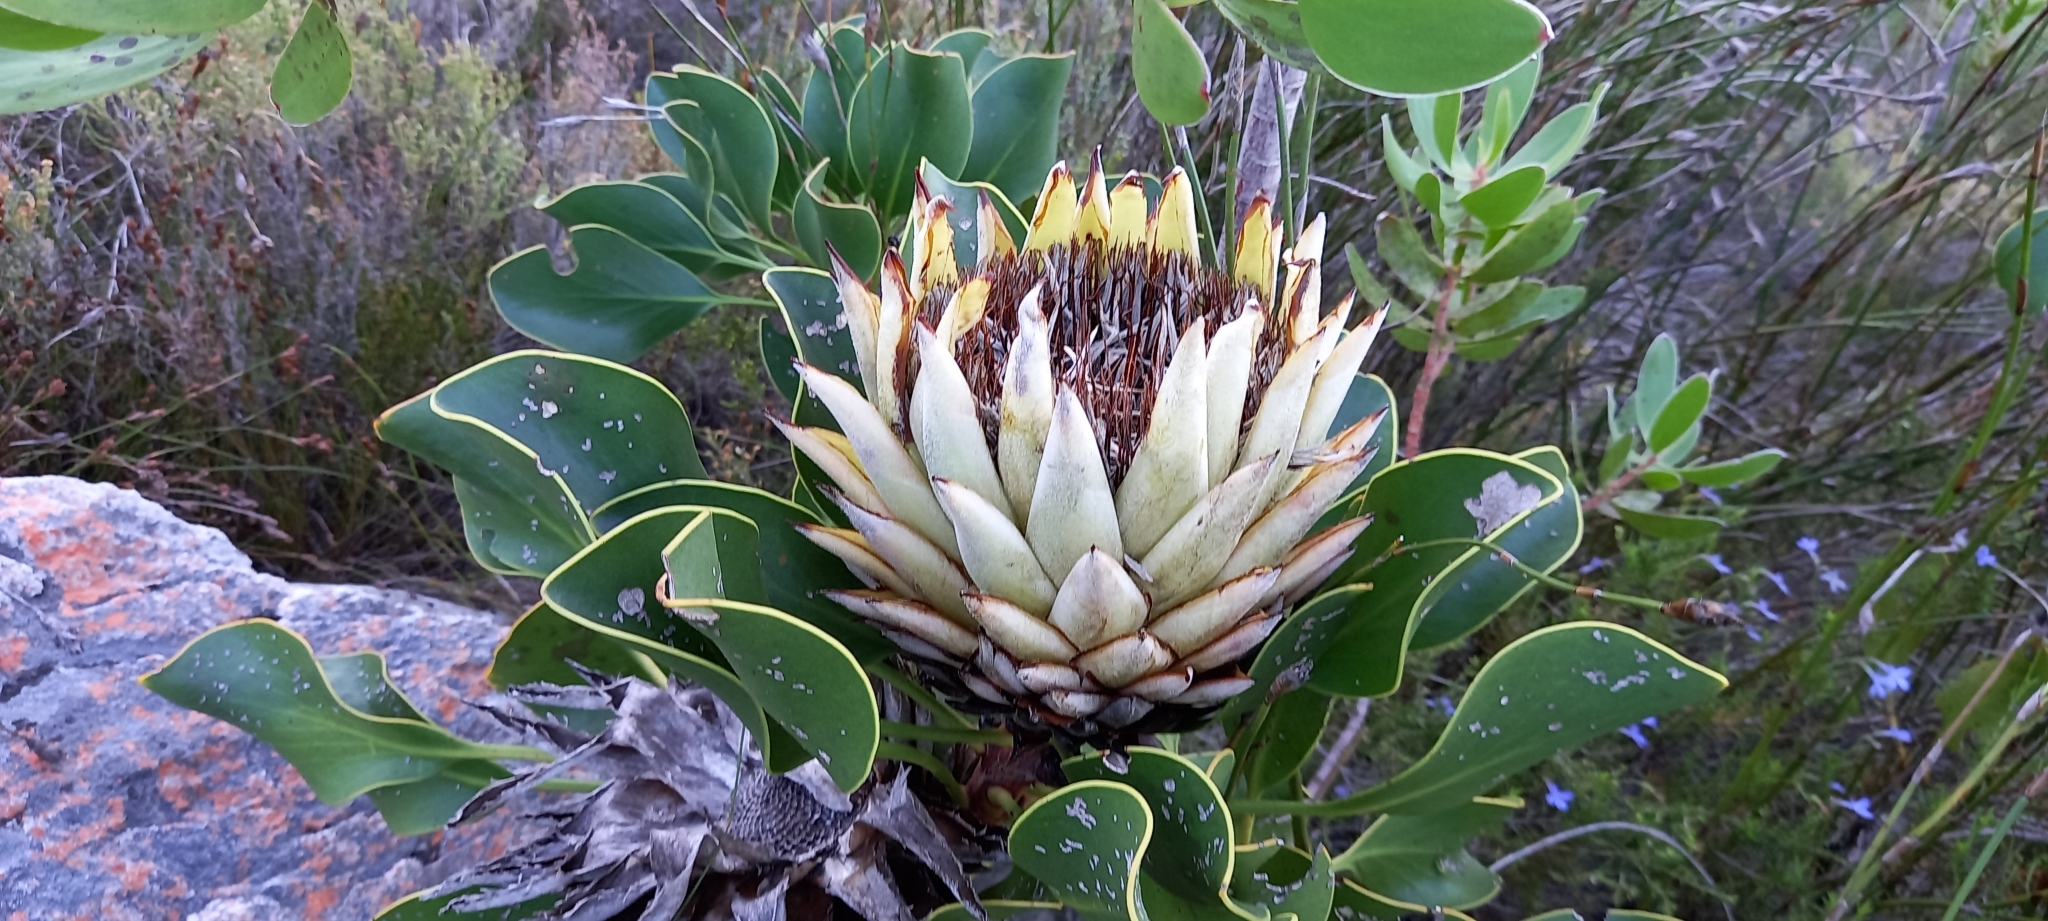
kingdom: Plantae
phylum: Tracheophyta
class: Magnoliopsida
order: Proteales
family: Proteaceae
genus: Protea
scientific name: Protea cynaroides
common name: King protea
